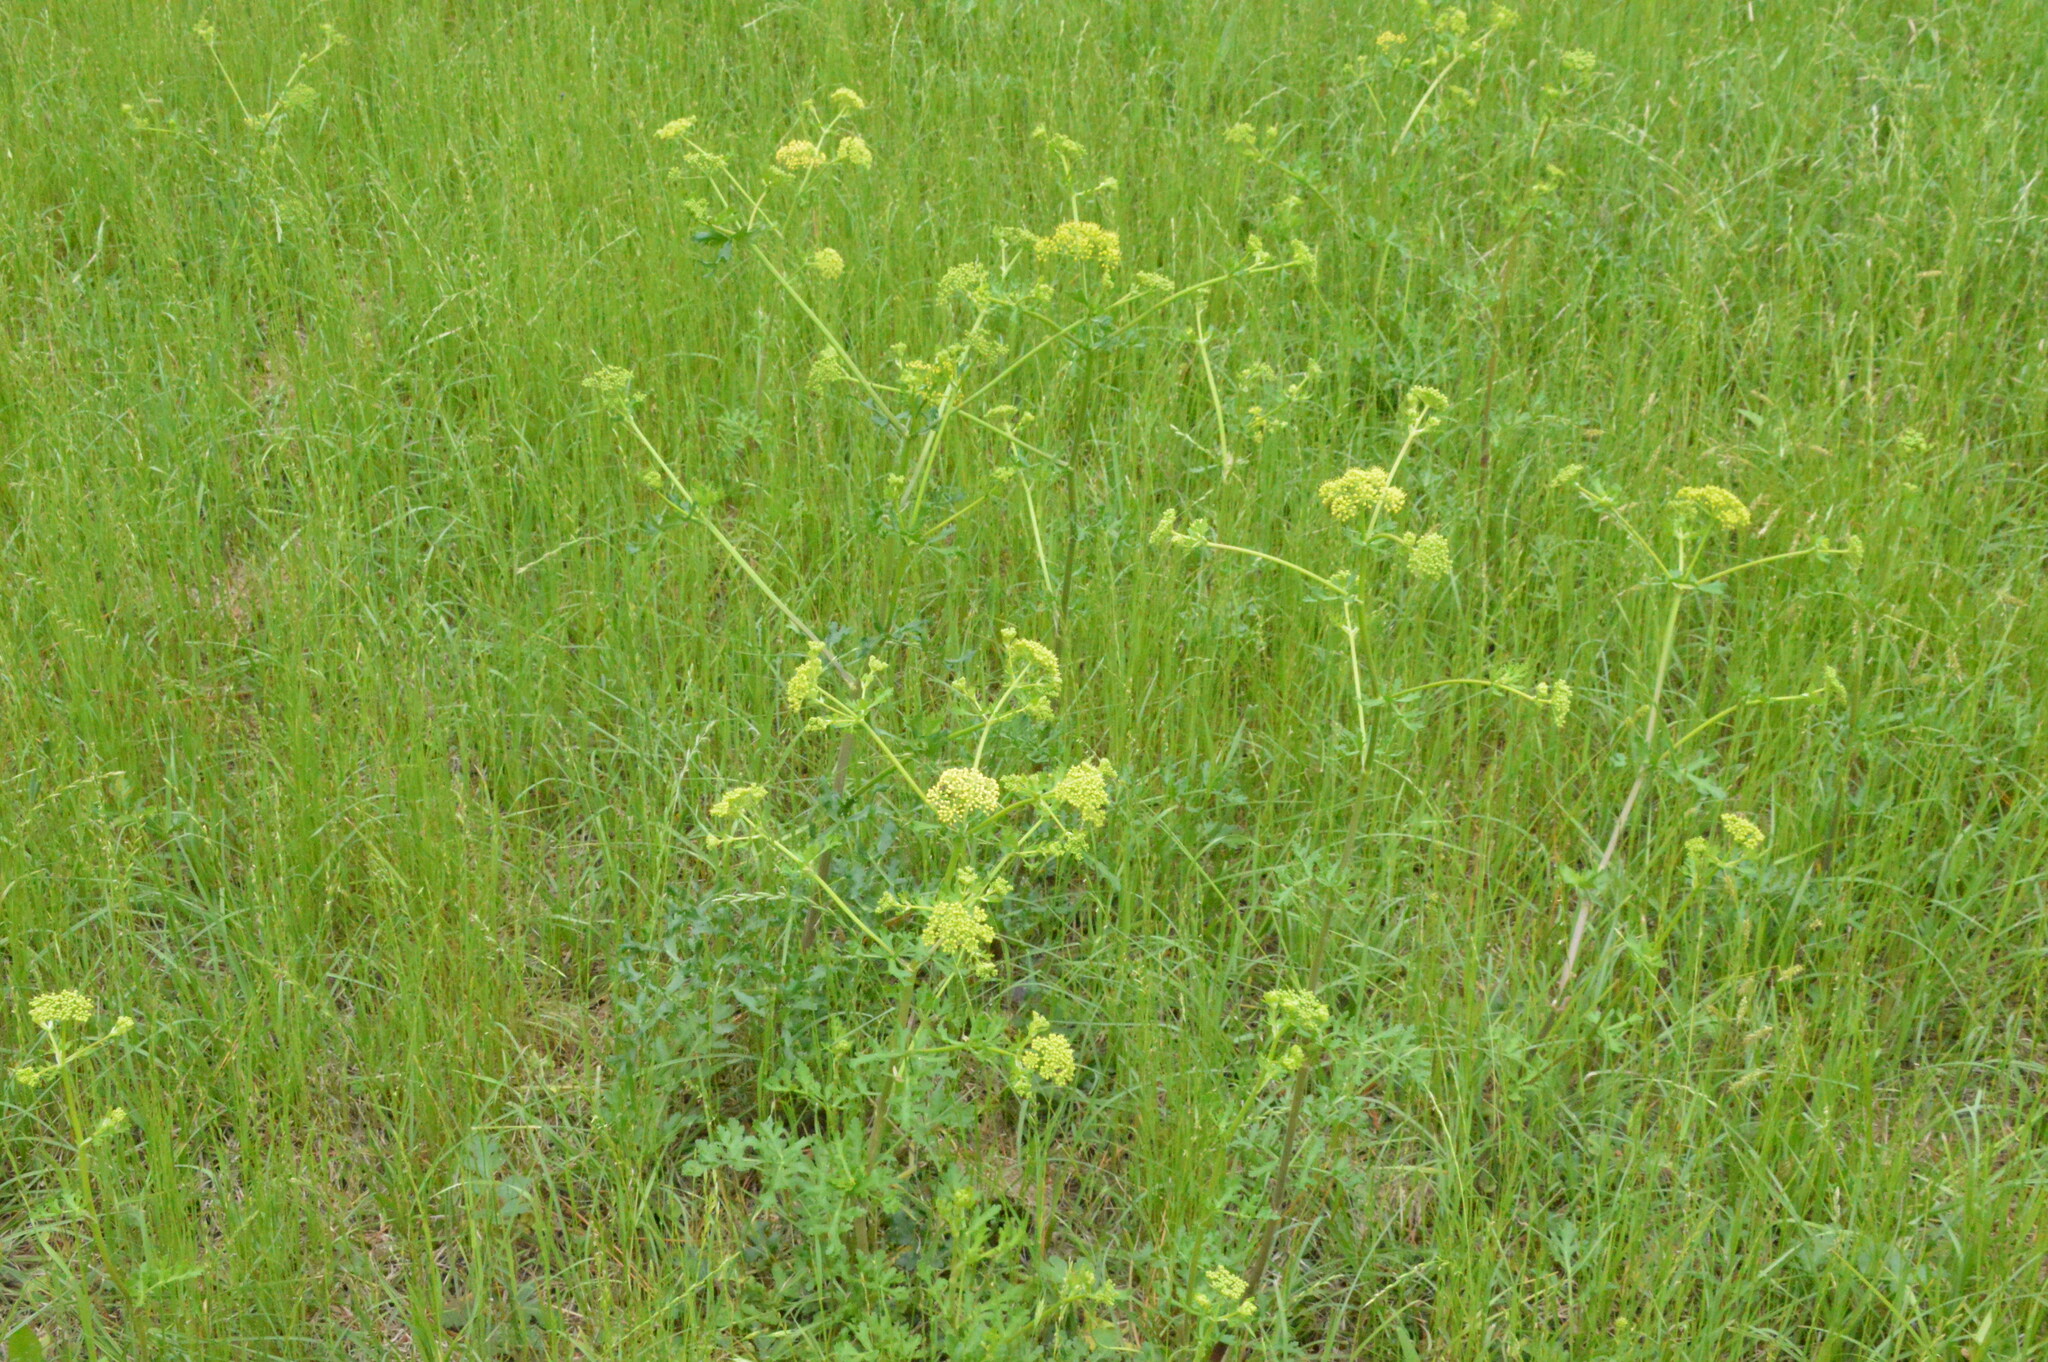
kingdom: Plantae
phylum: Tracheophyta
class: Magnoliopsida
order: Apiales
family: Apiaceae
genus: Polytaenia
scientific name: Polytaenia texana
